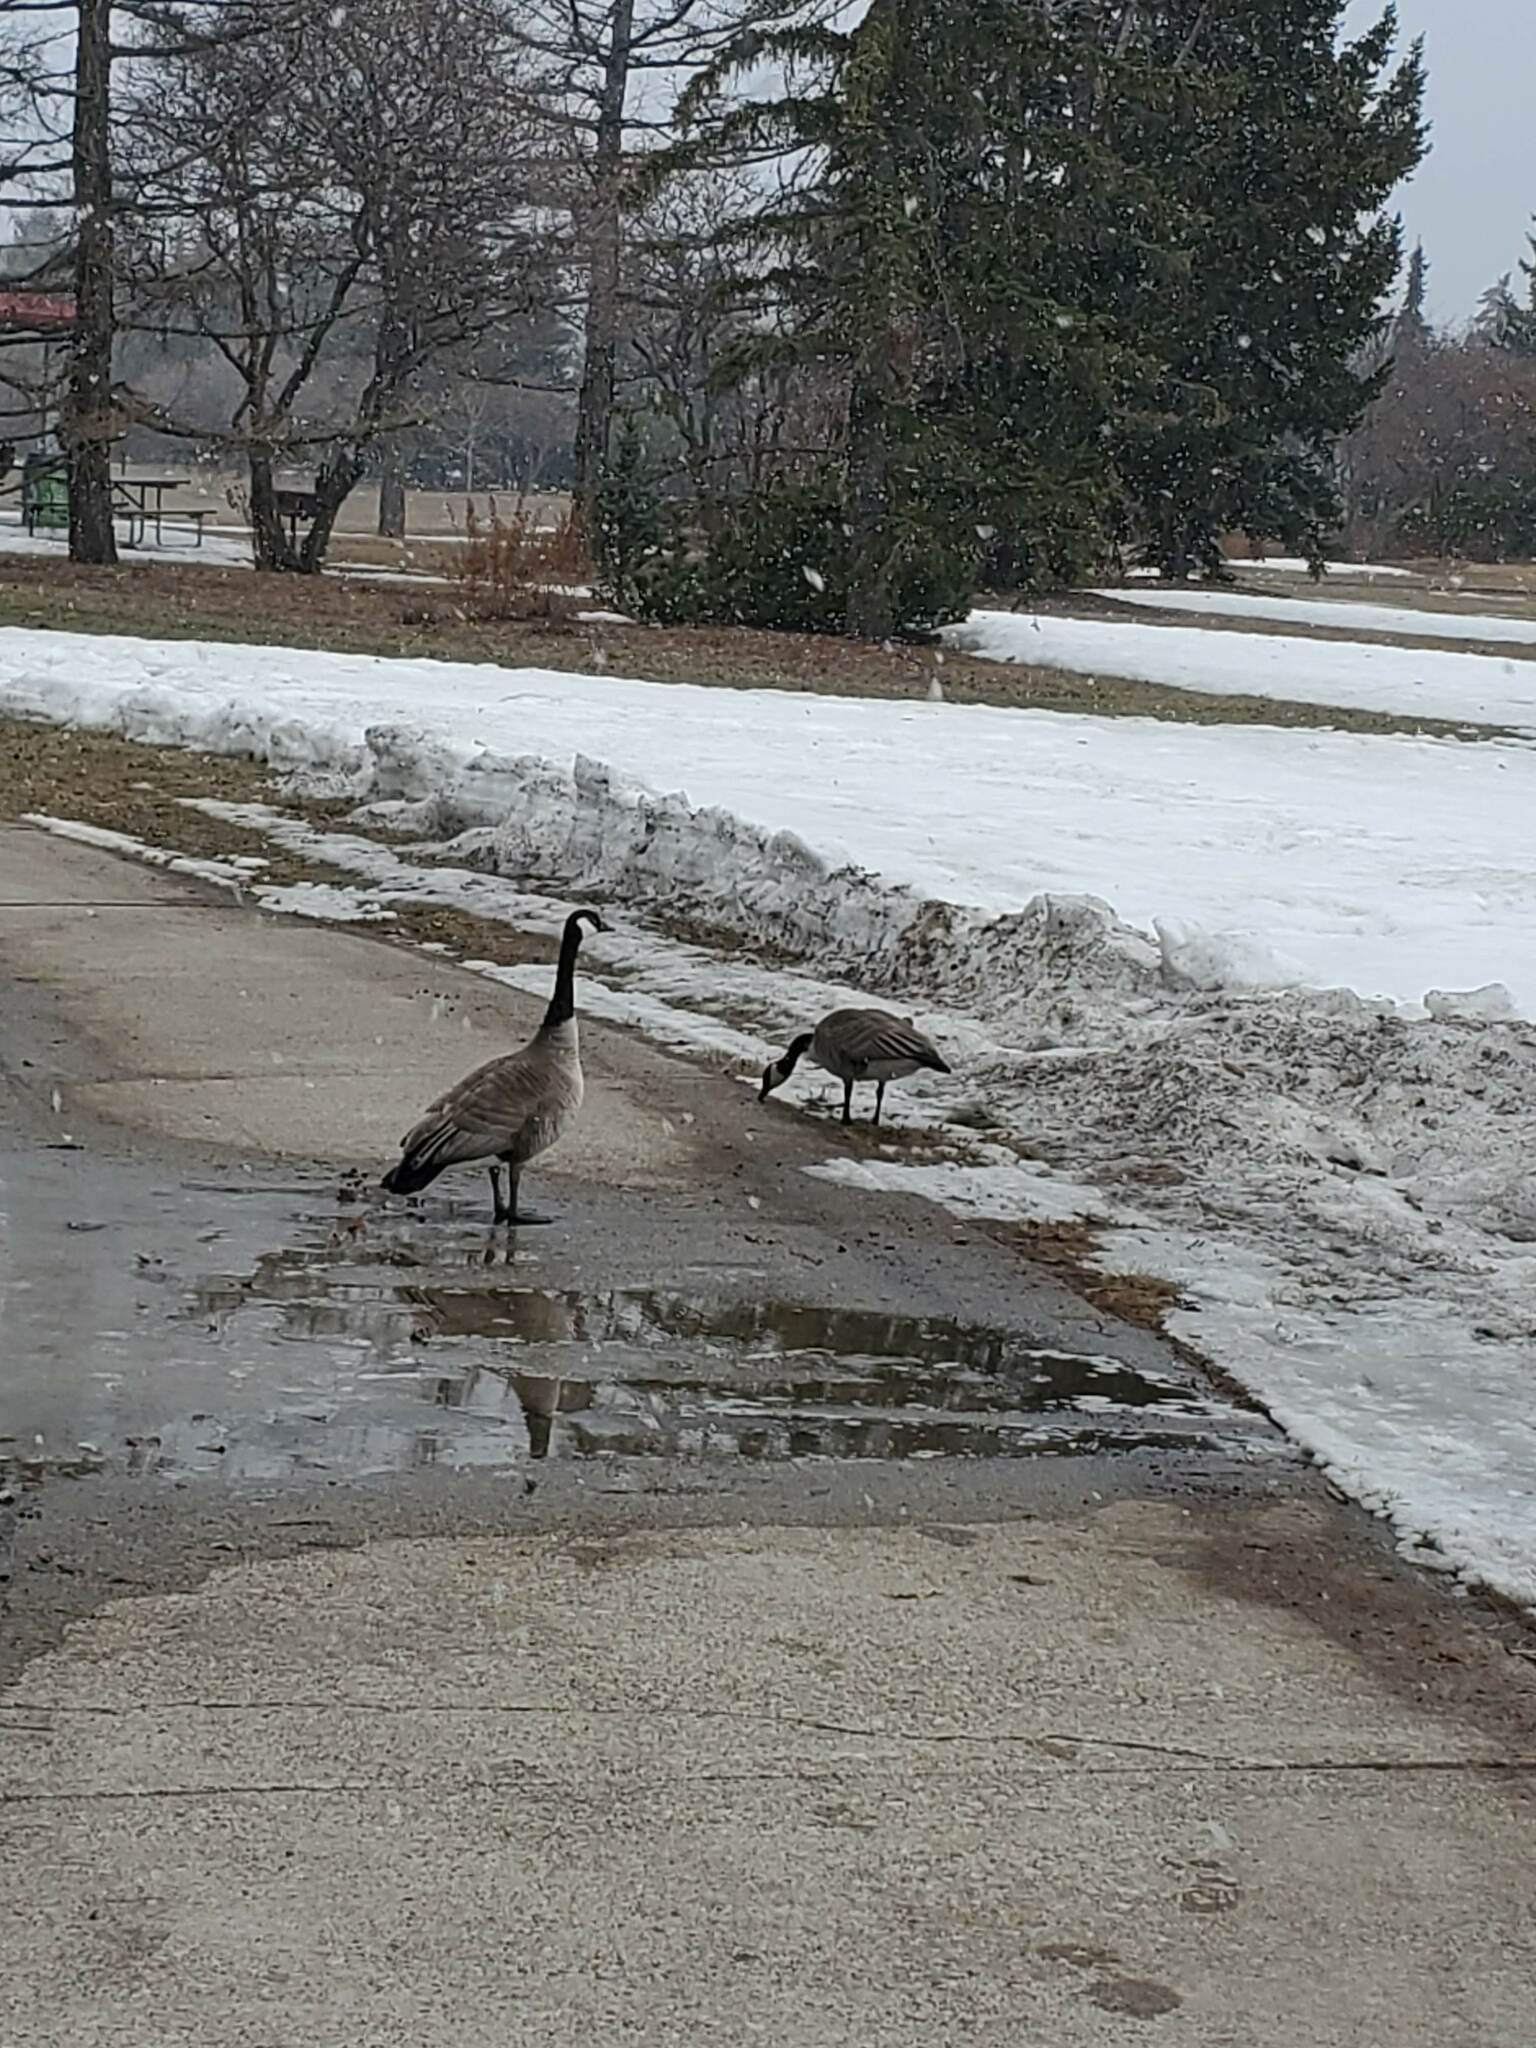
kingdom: Animalia
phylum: Chordata
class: Aves
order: Anseriformes
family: Anatidae
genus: Branta
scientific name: Branta canadensis
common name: Canada goose
